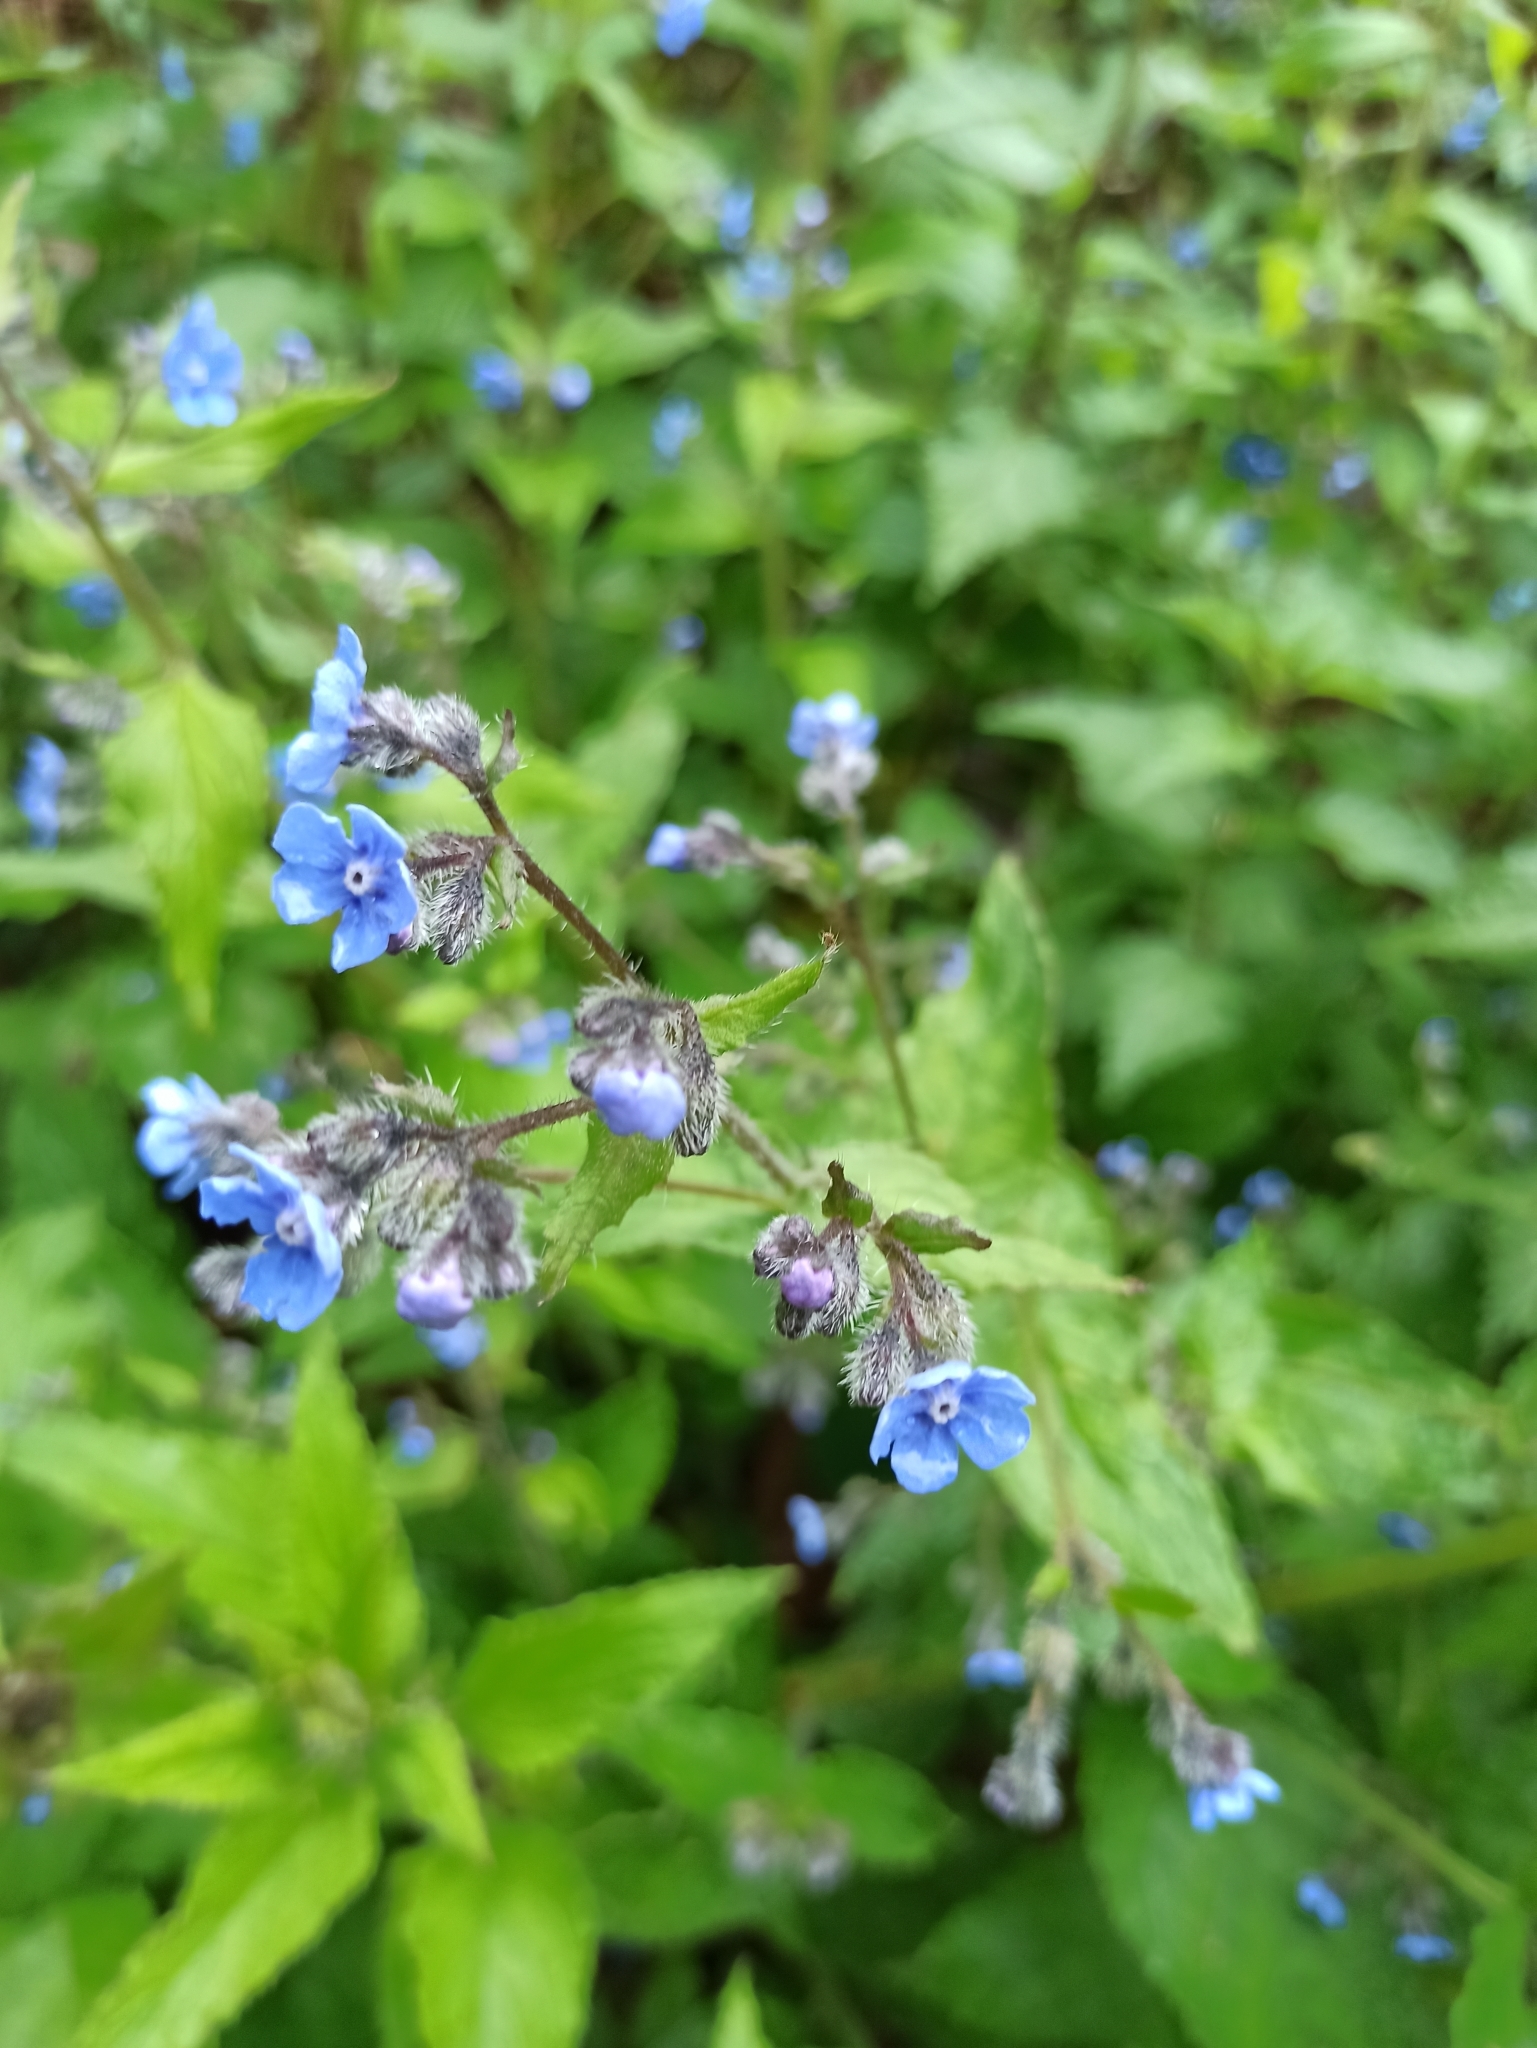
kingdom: Plantae
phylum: Tracheophyta
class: Magnoliopsida
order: Boraginales
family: Boraginaceae
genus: Pentaglottis
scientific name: Pentaglottis sempervirens
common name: Green alkanet
